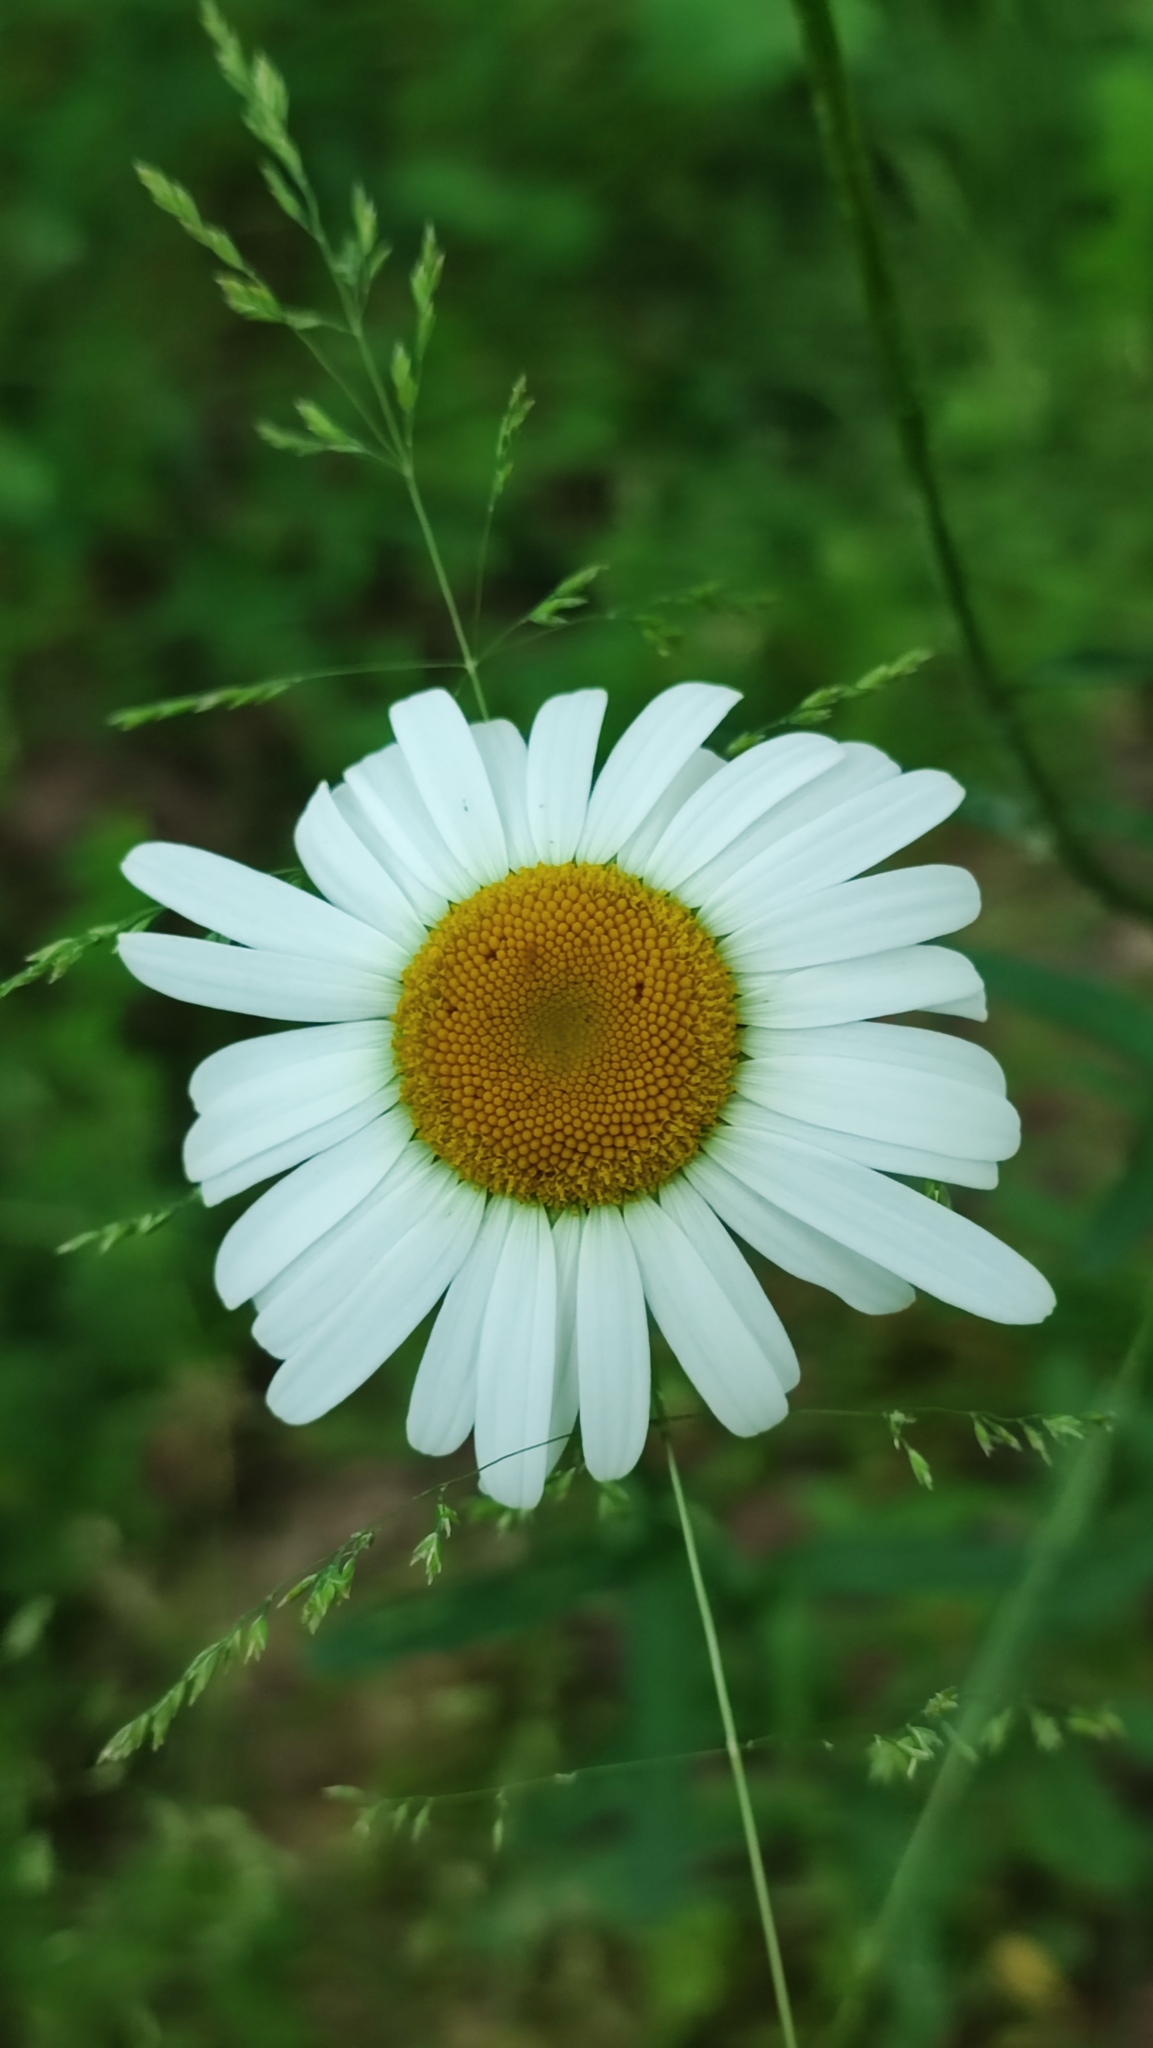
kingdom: Plantae
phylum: Tracheophyta
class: Magnoliopsida
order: Asterales
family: Asteraceae
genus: Leucanthemum
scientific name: Leucanthemum vulgare
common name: Oxeye daisy
